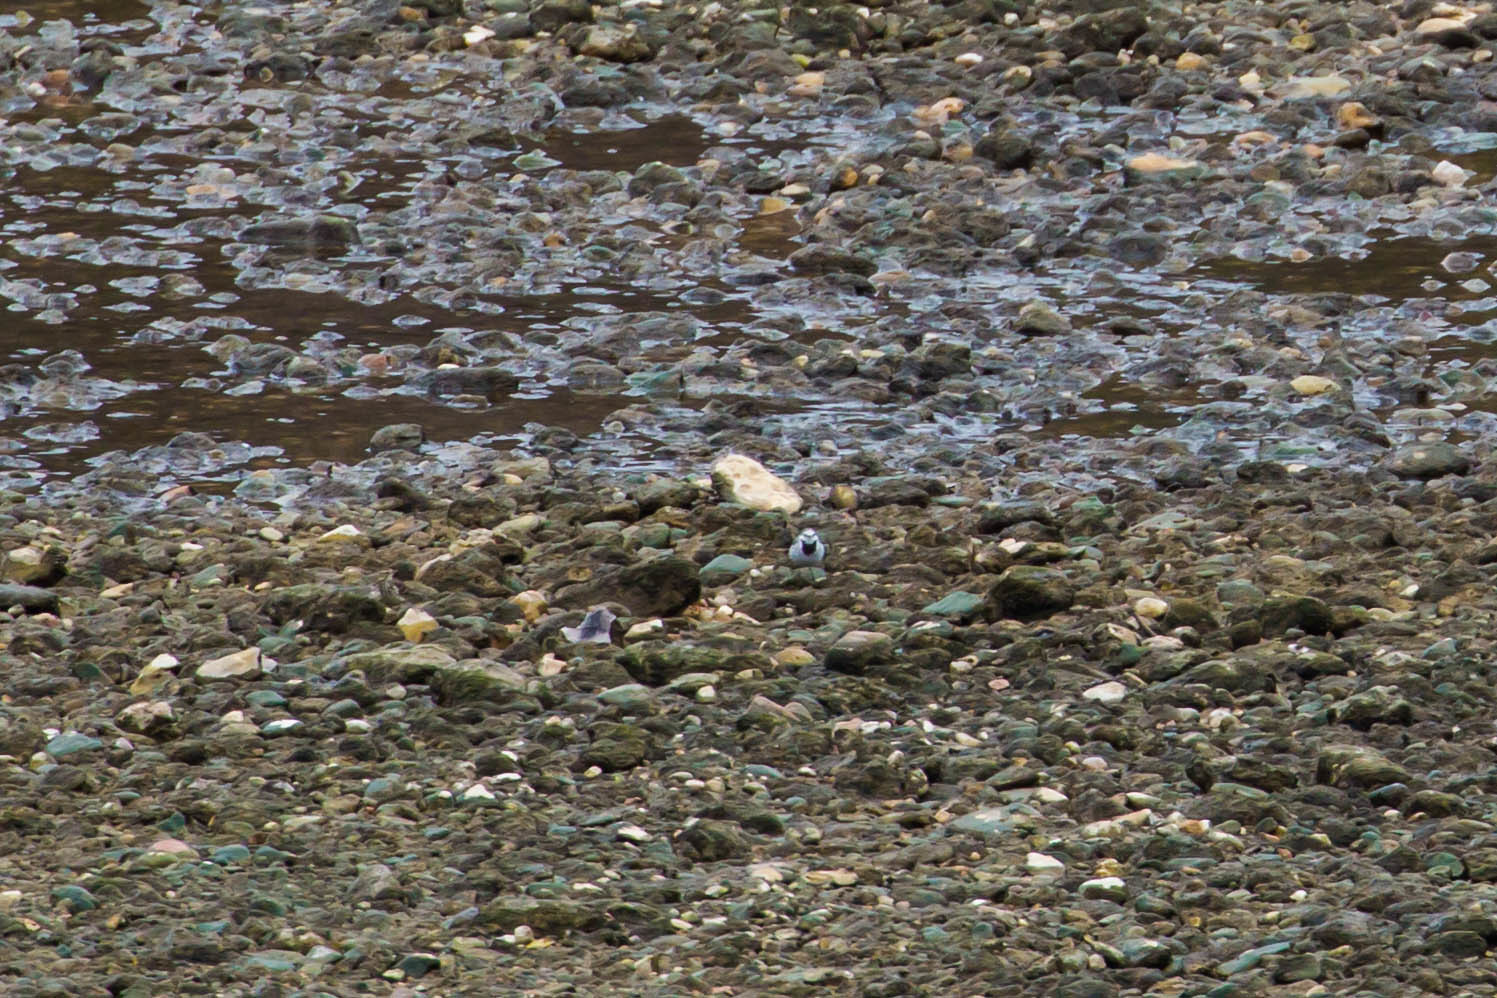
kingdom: Animalia
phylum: Chordata
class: Aves
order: Passeriformes
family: Motacillidae
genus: Motacilla
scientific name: Motacilla alba
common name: White wagtail
